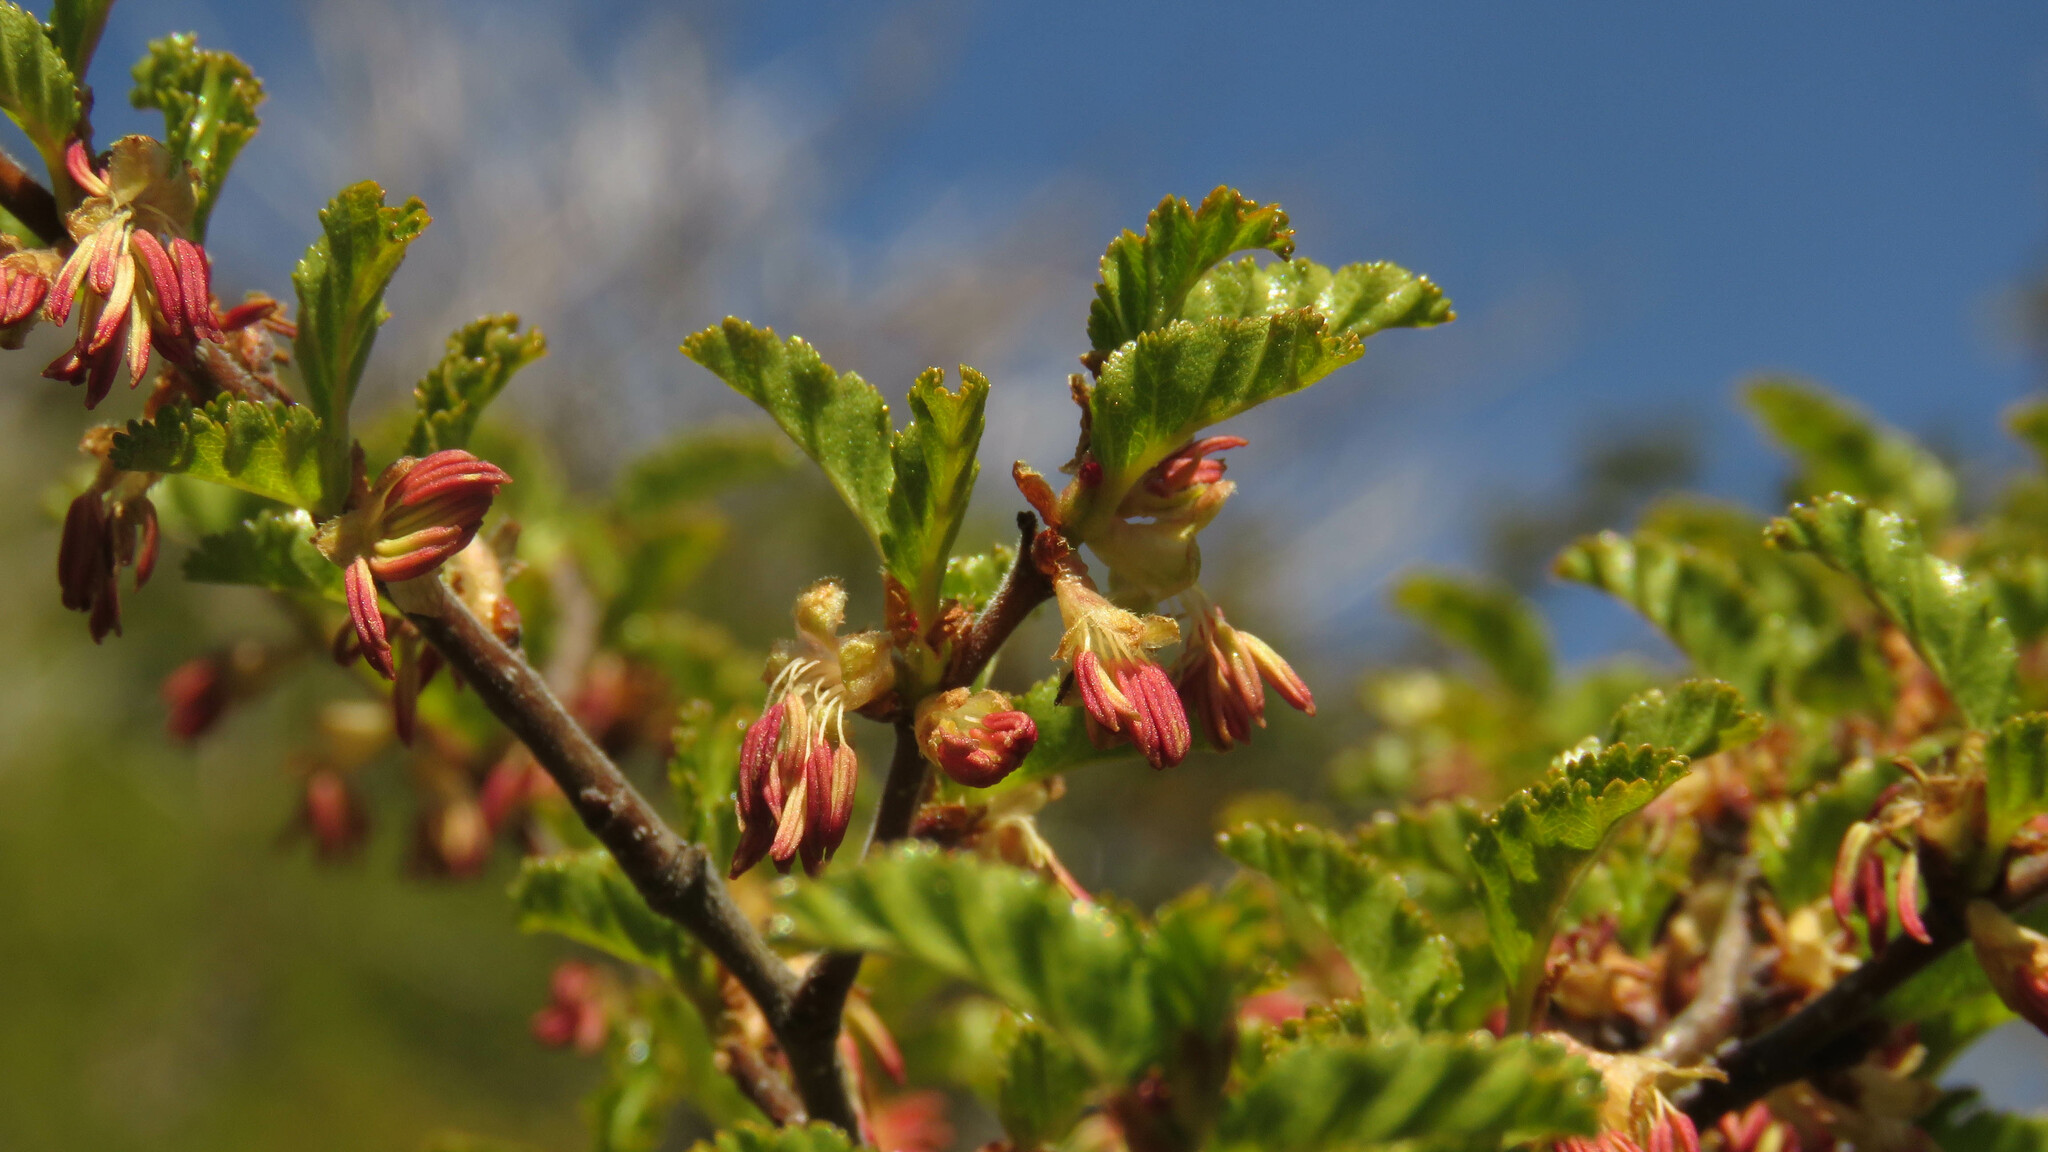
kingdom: Plantae
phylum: Tracheophyta
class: Magnoliopsida
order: Fagales
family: Nothofagaceae
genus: Nothofagus
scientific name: Nothofagus antarctica
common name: Antarctic beech
